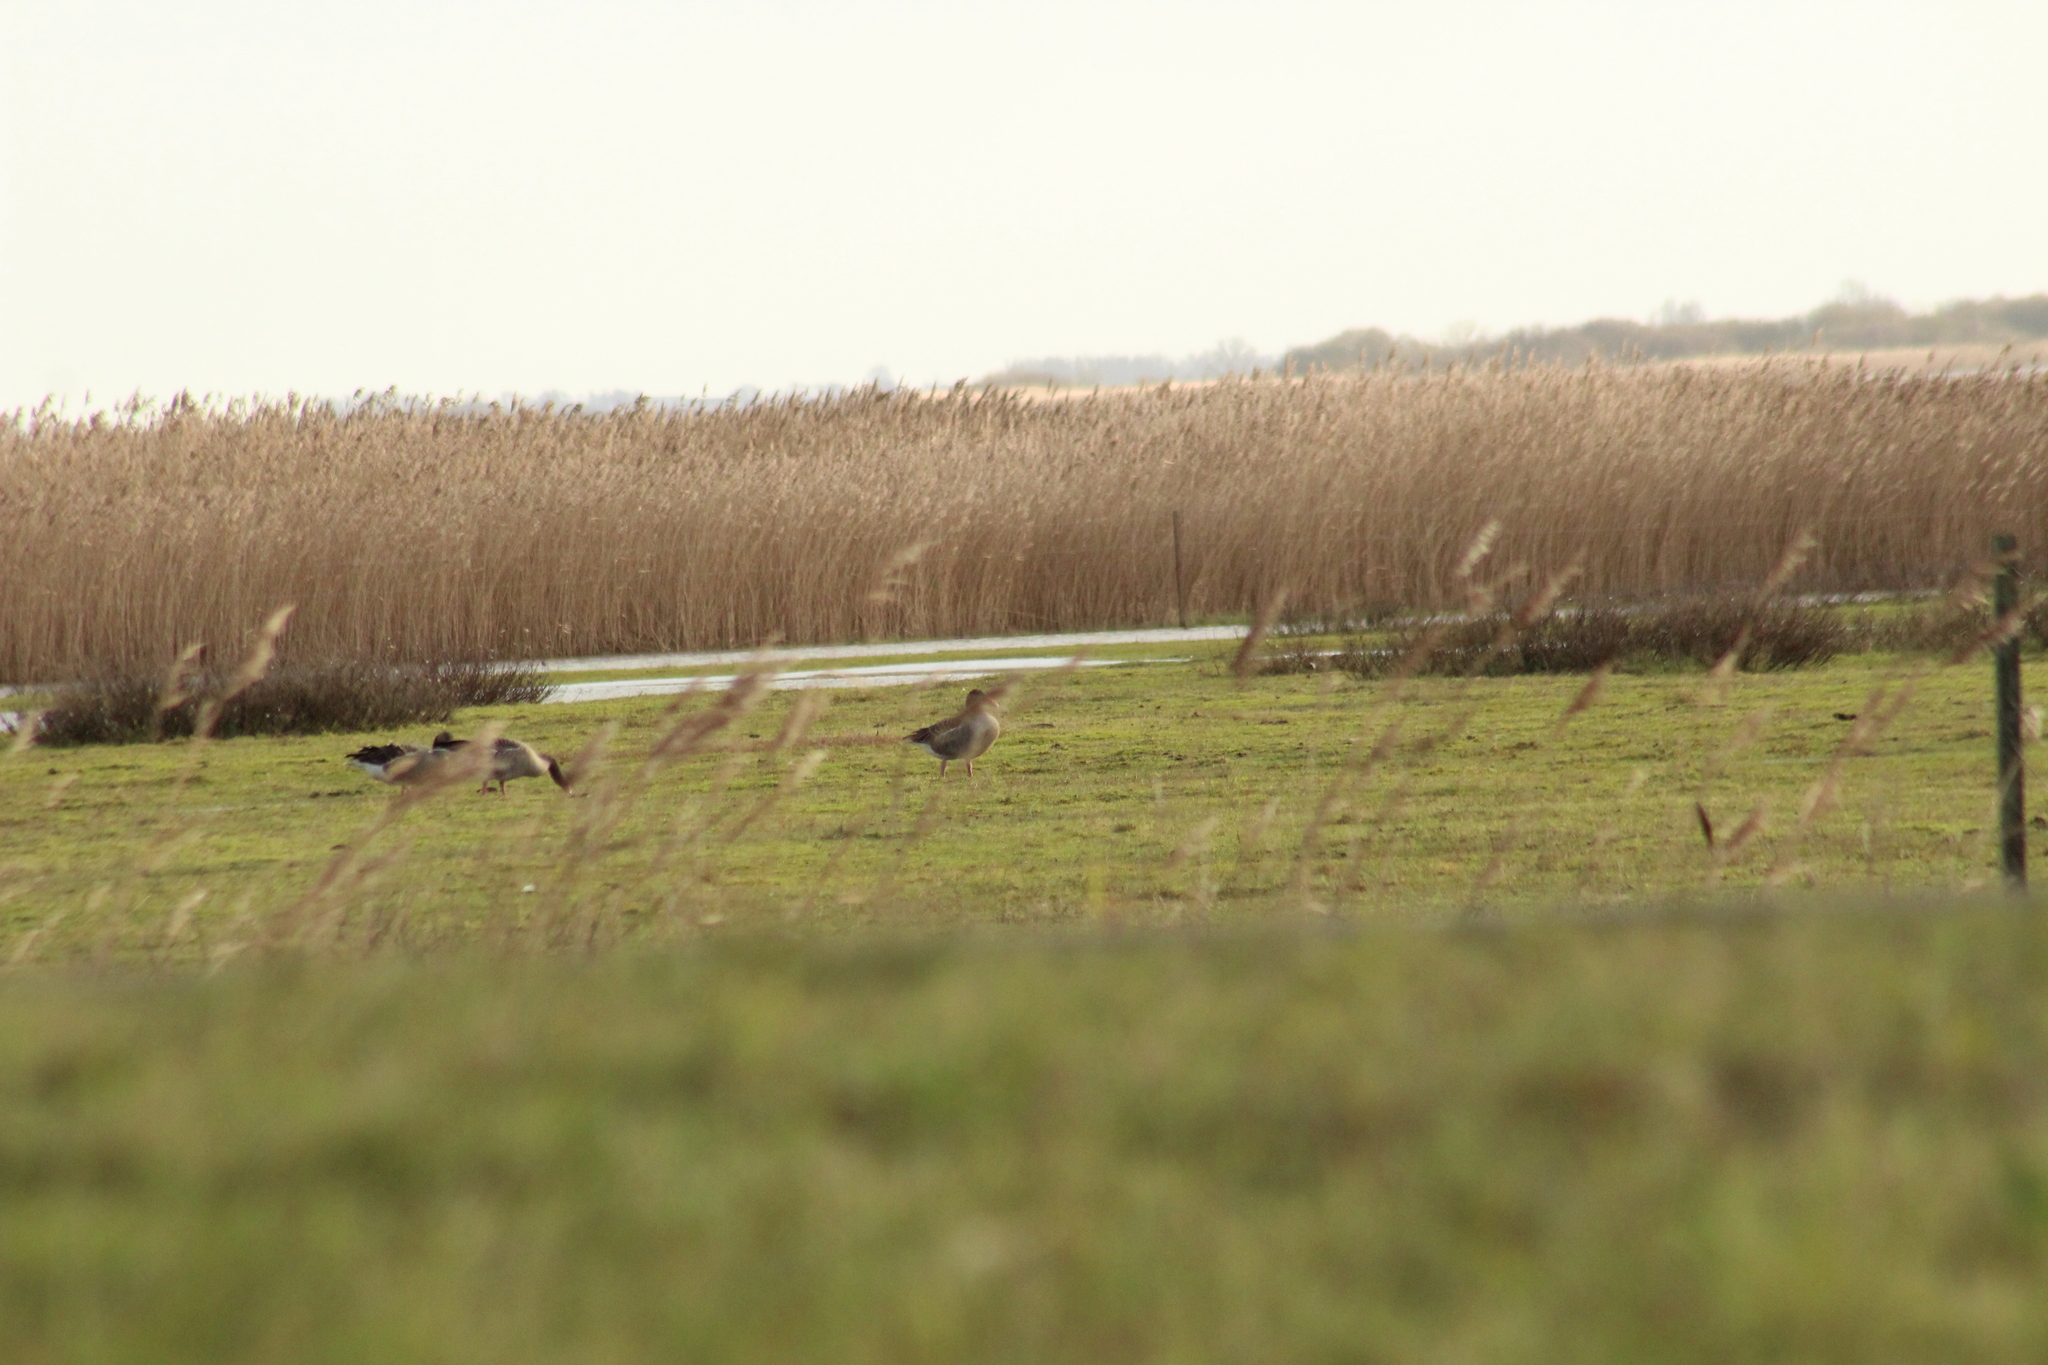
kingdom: Animalia
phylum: Chordata
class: Aves
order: Anseriformes
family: Anatidae
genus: Anser
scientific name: Anser anser
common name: Greylag goose
